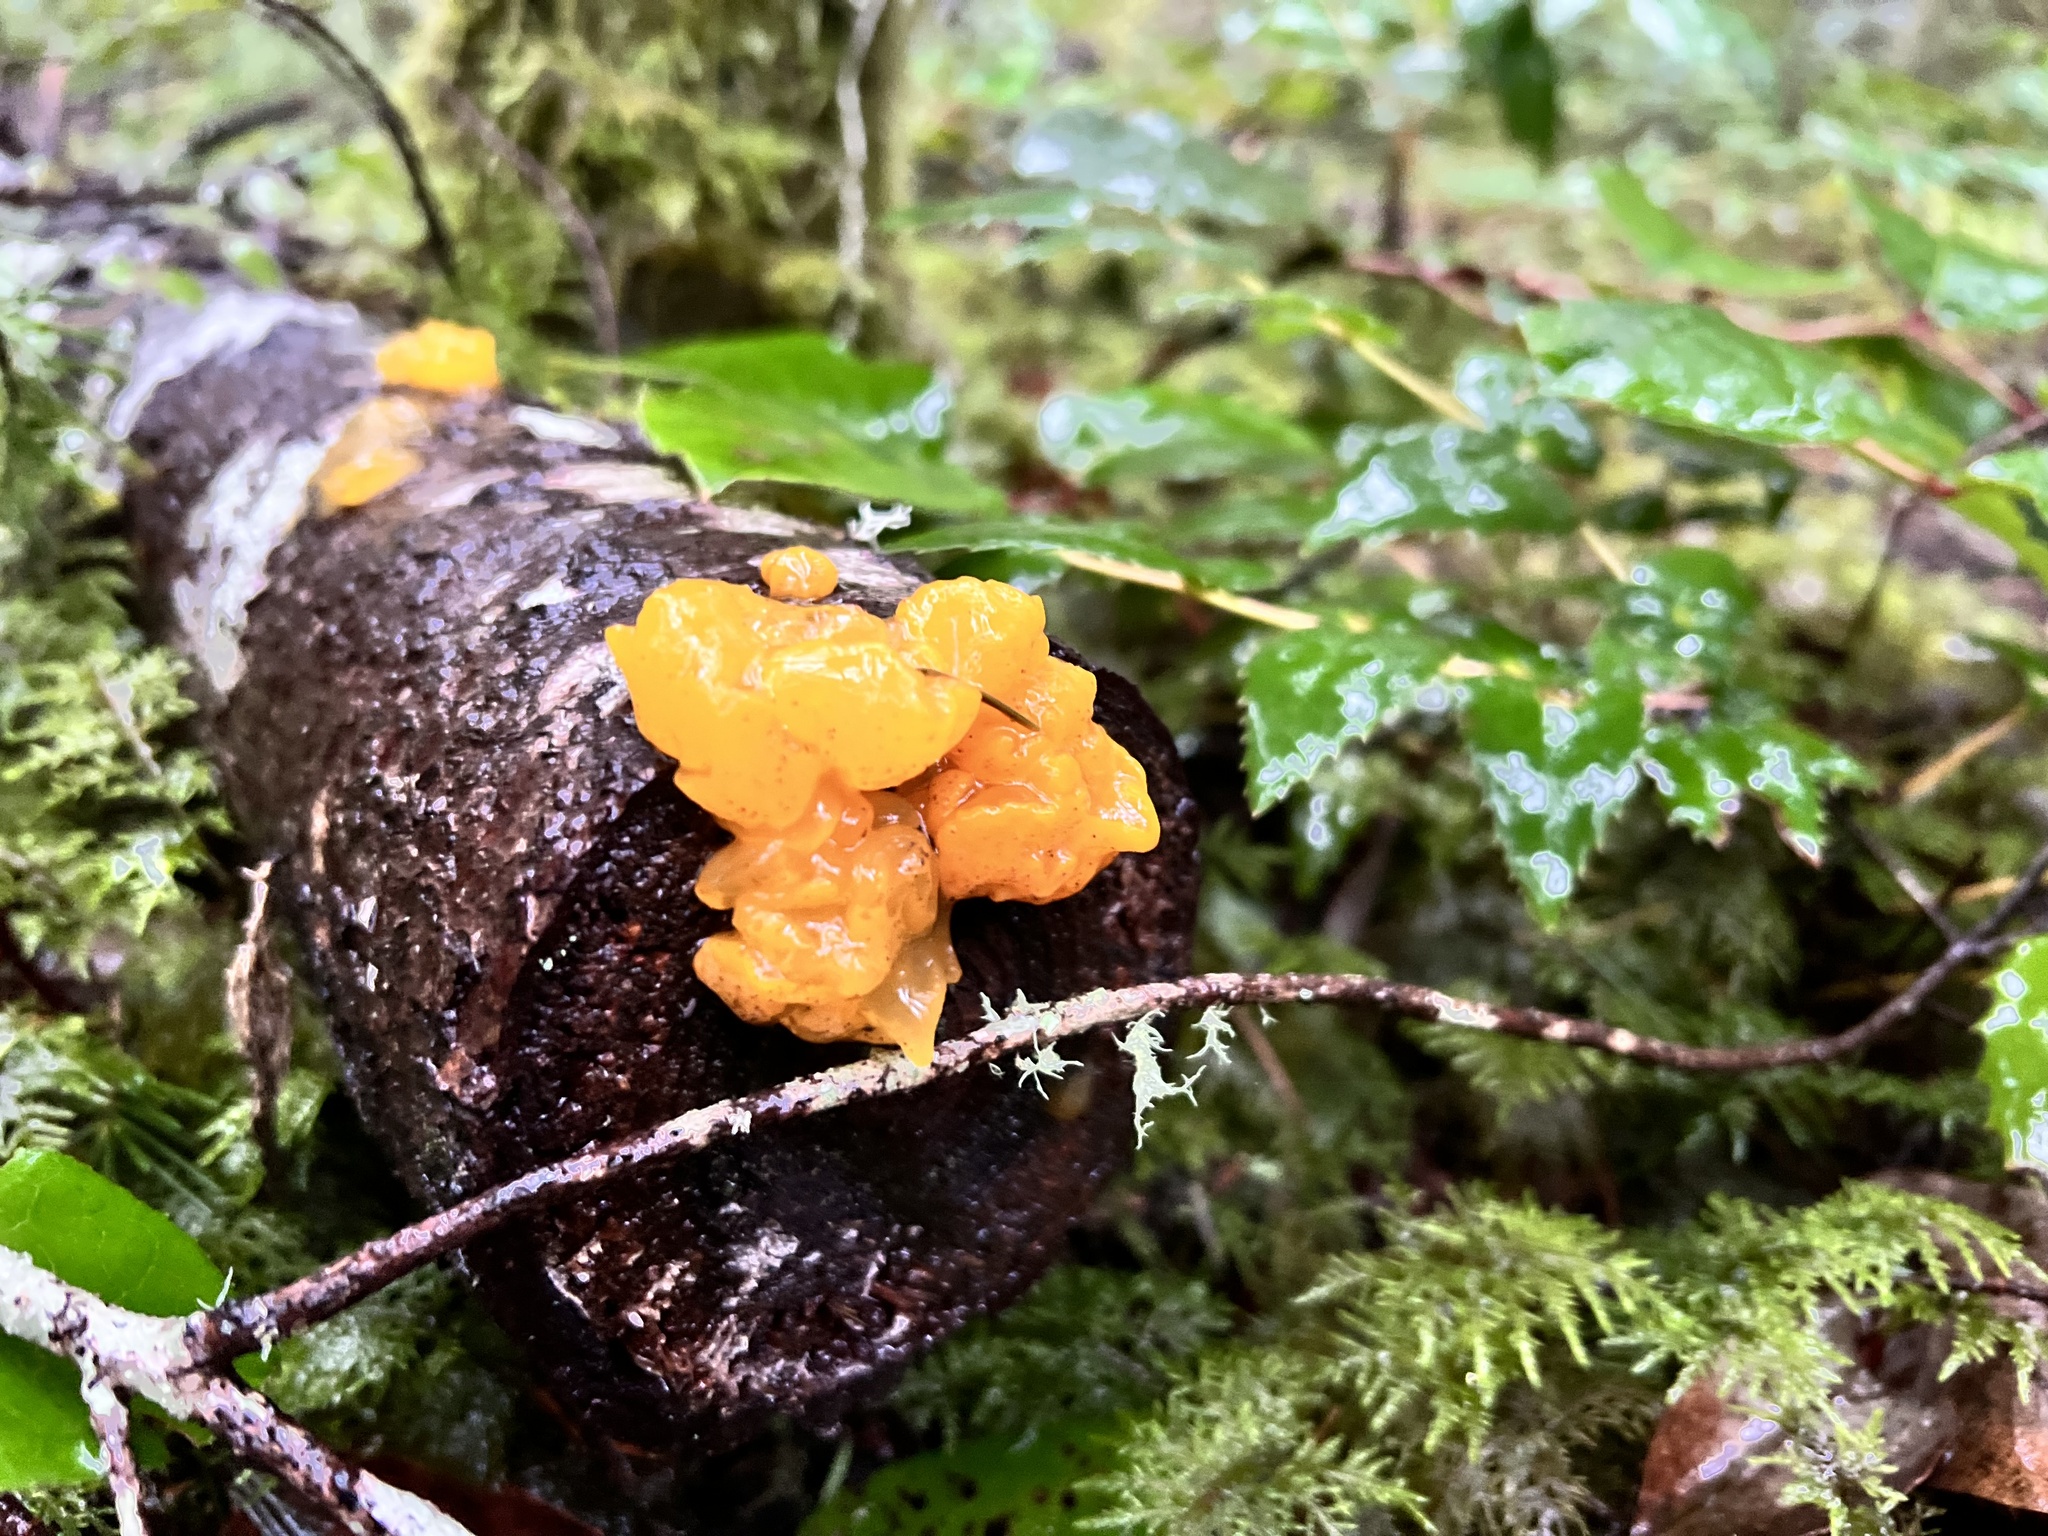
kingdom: Fungi
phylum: Basidiomycota
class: Tremellomycetes
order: Tremellales
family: Tremellaceae
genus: Tremella
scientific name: Tremella mesenterica
